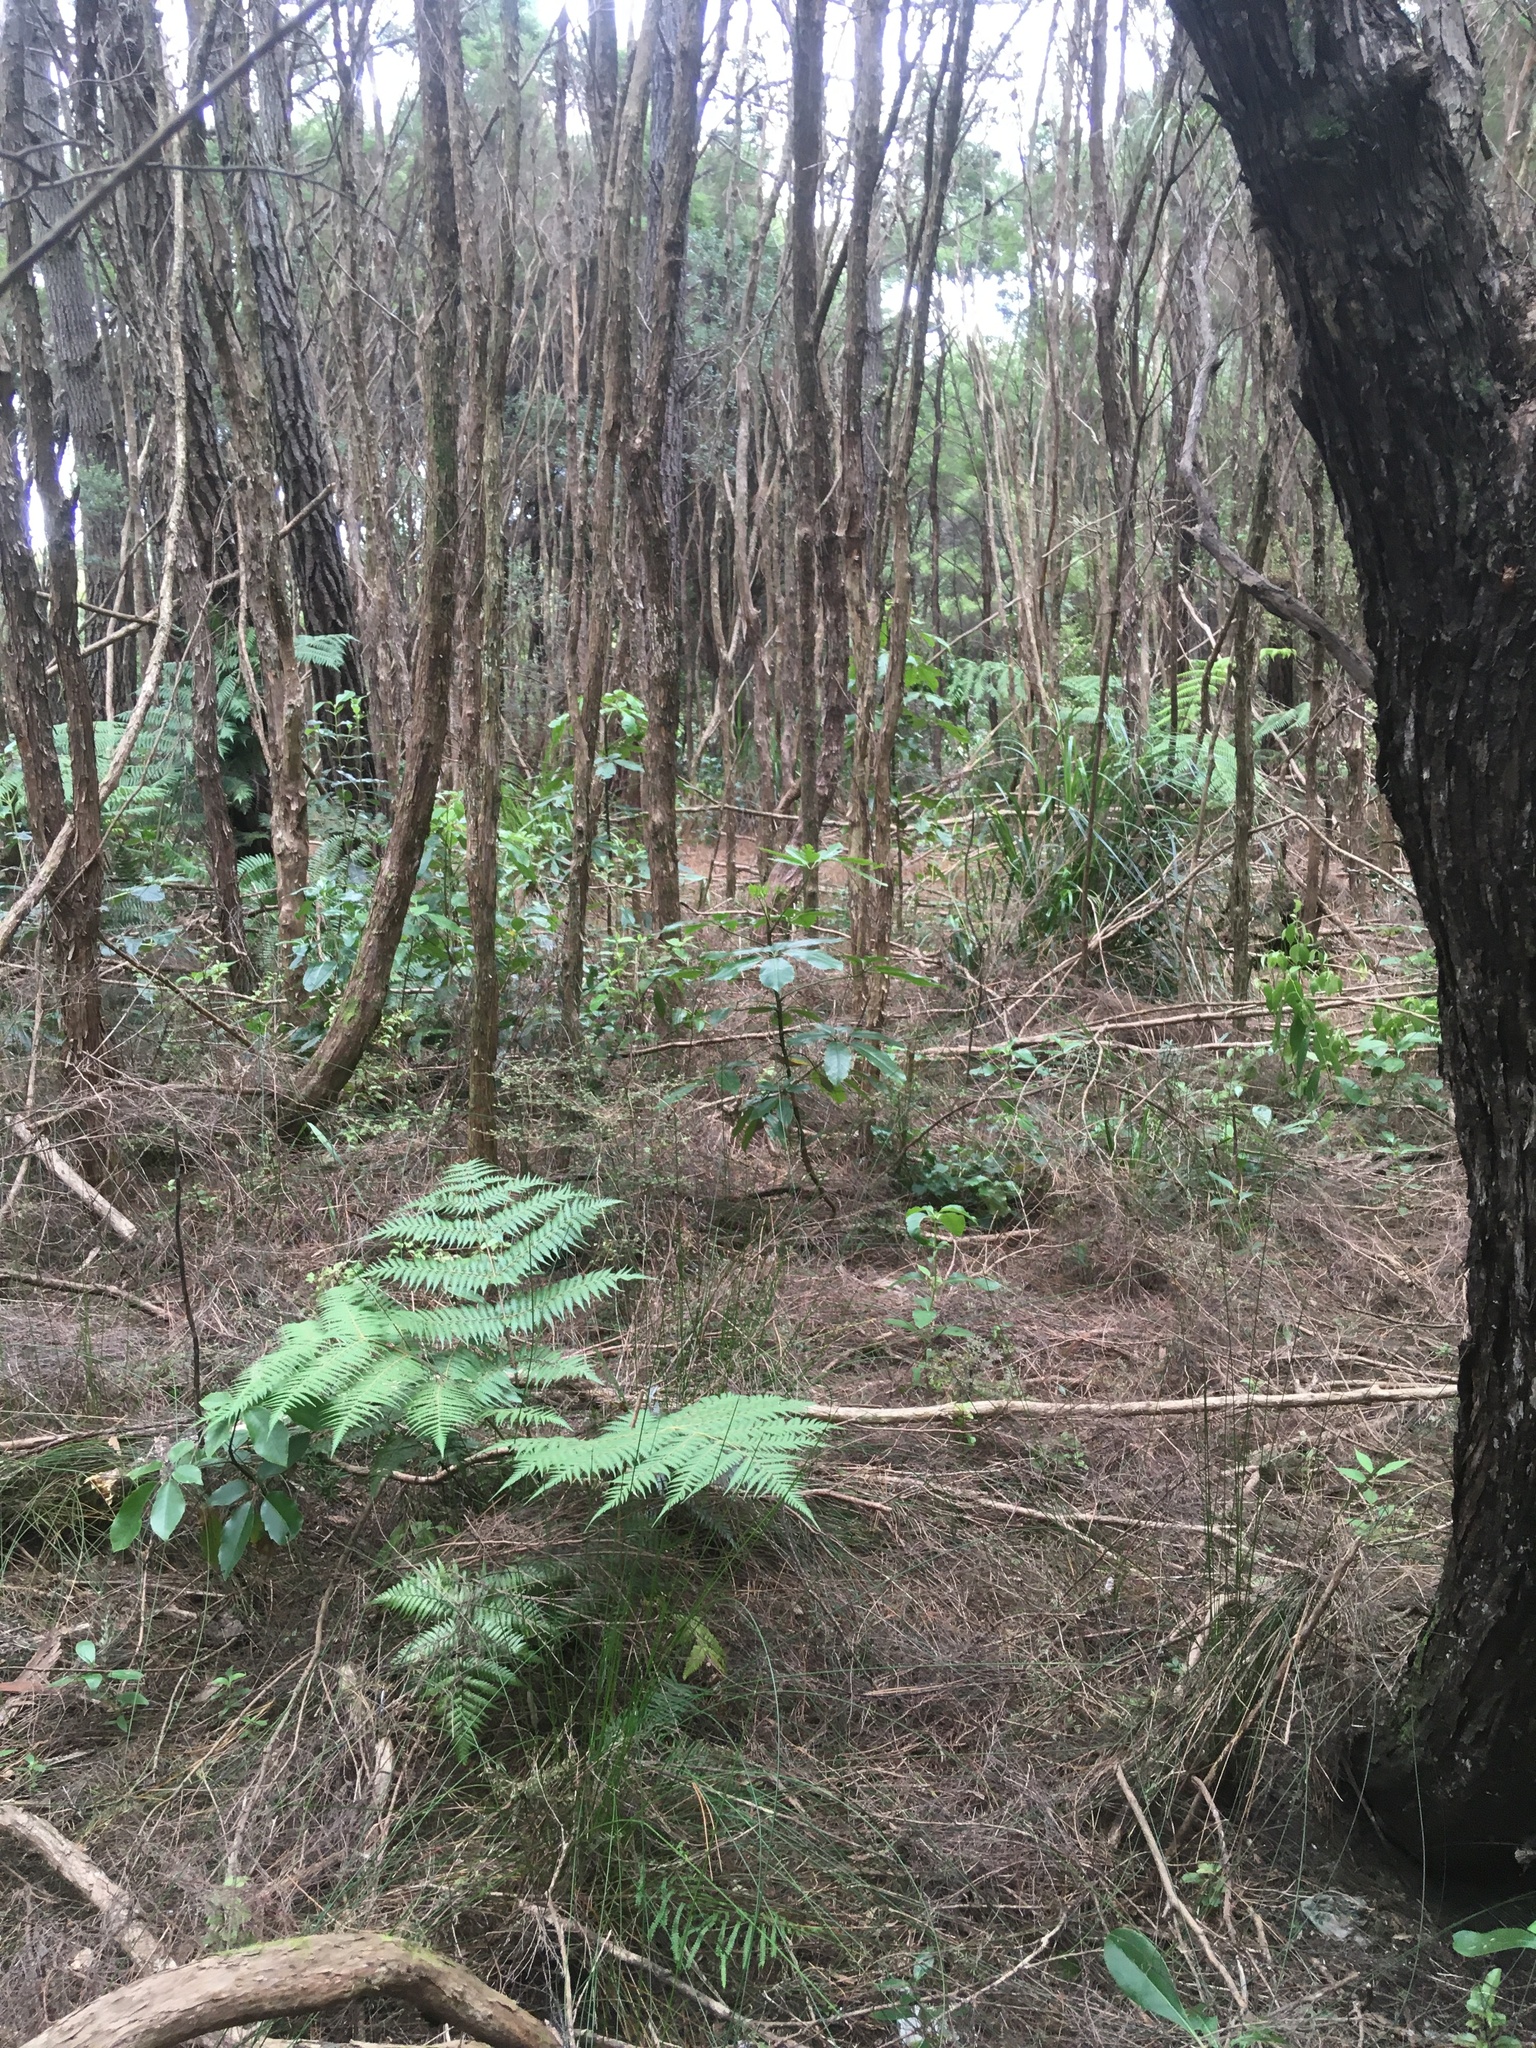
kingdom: Plantae
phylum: Tracheophyta
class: Polypodiopsida
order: Cyatheales
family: Cyatheaceae
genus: Alsophila
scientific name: Alsophila dealbata
